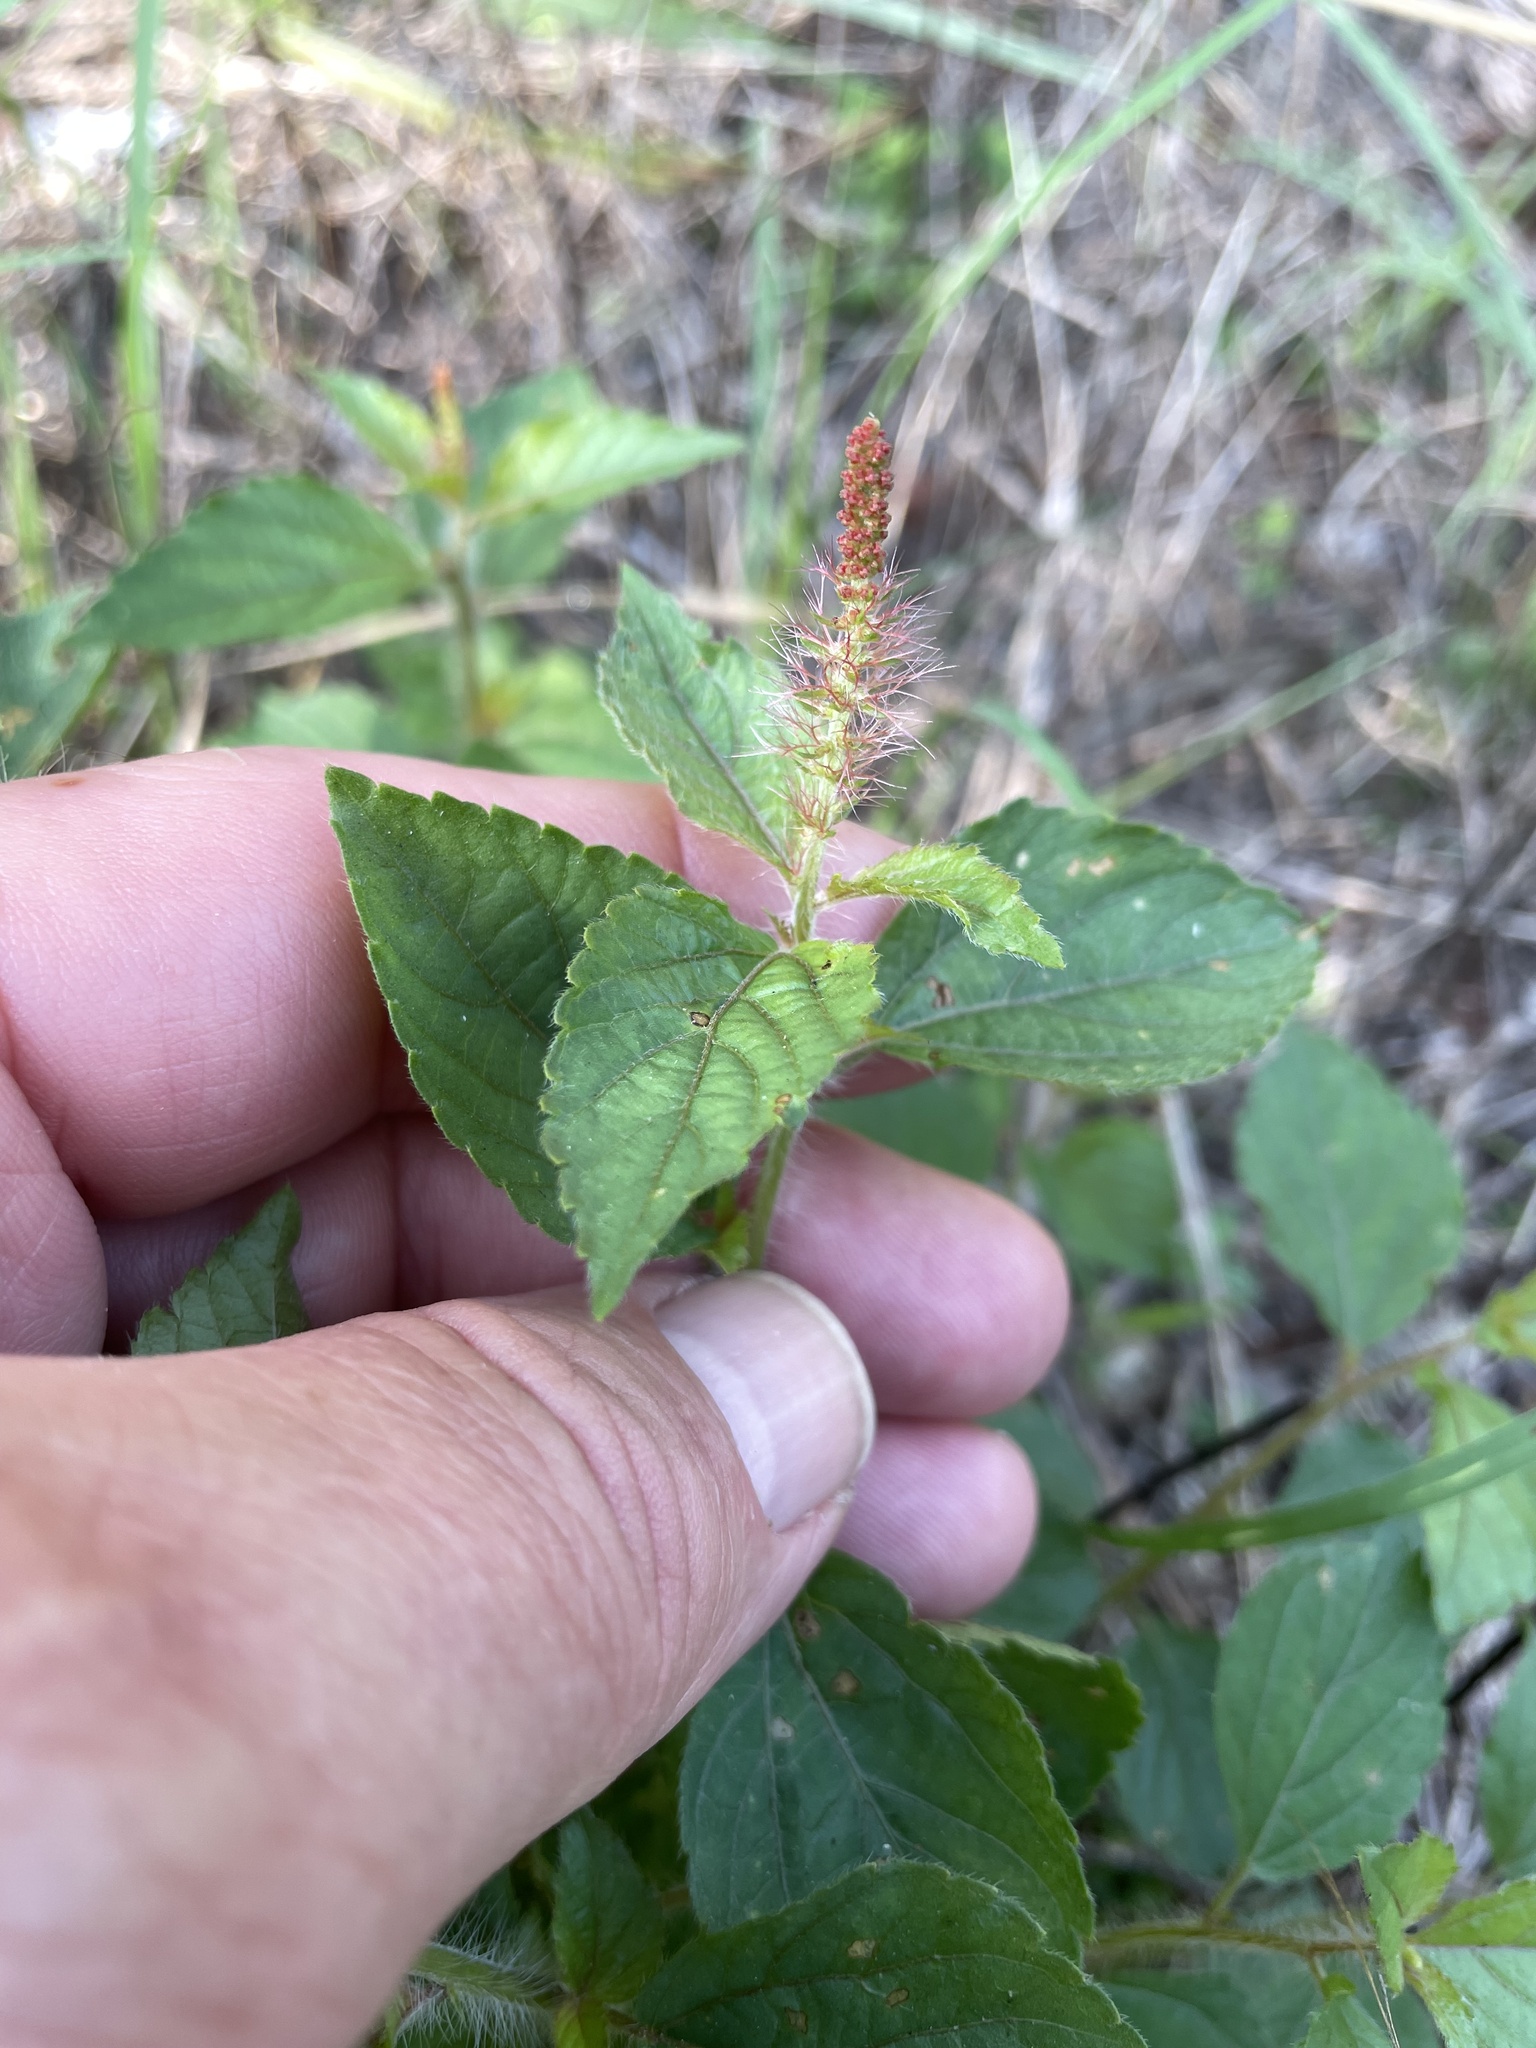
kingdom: Plantae
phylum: Tracheophyta
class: Magnoliopsida
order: Malpighiales
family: Euphorbiaceae
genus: Acalypha
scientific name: Acalypha phleoides
